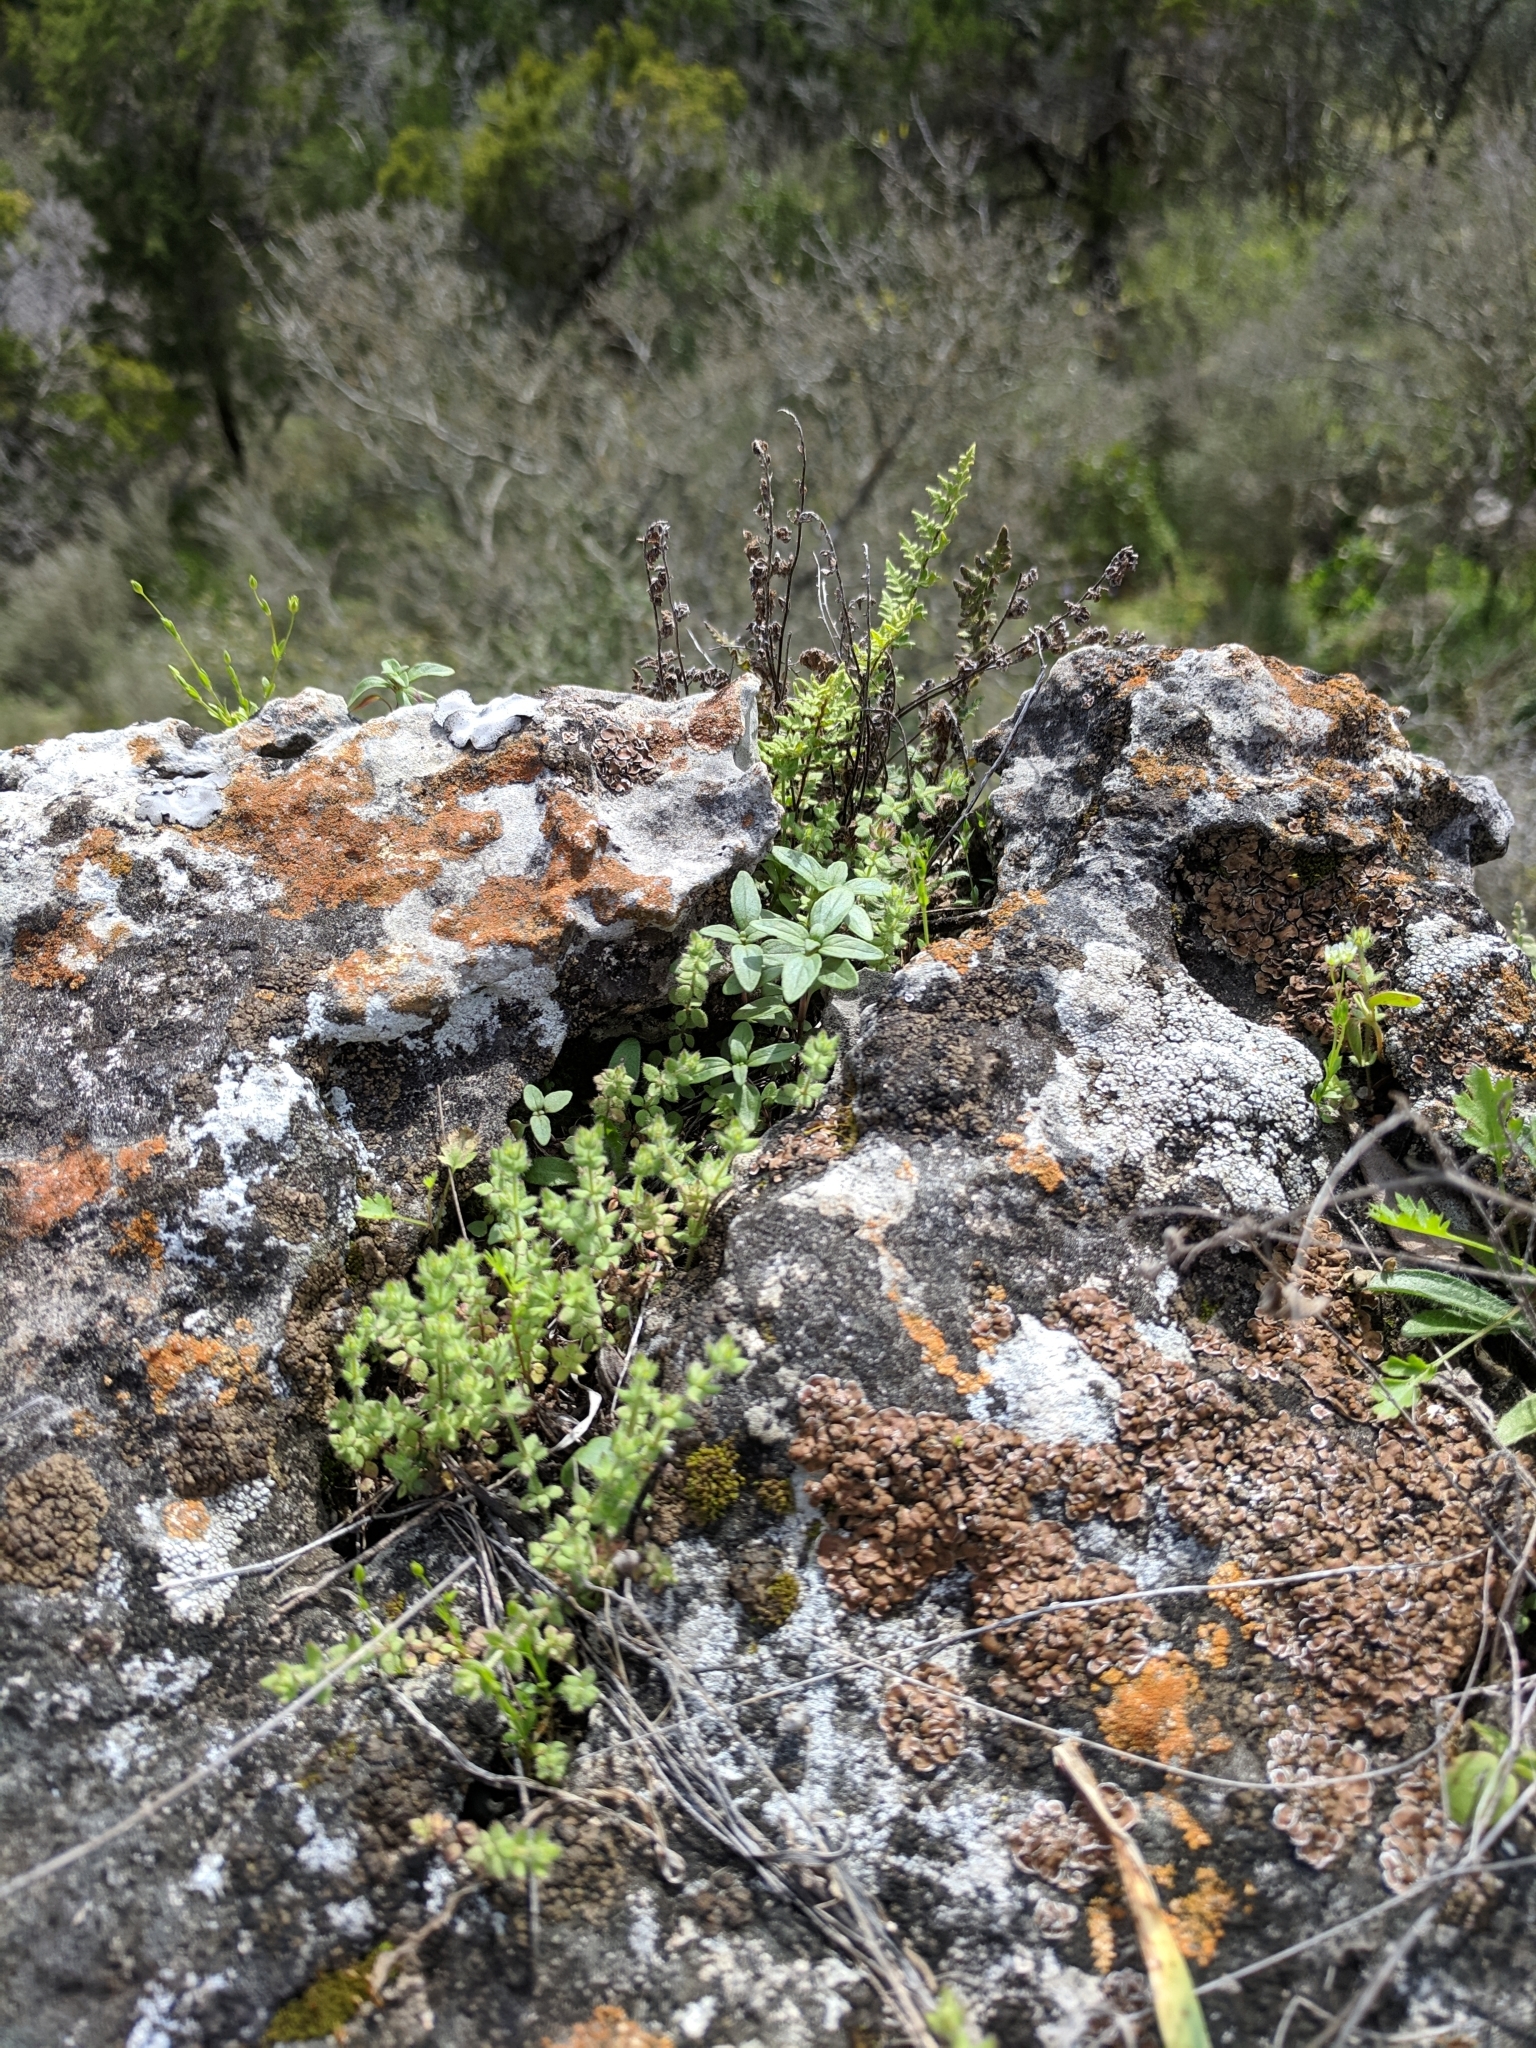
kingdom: Plantae
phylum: Tracheophyta
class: Magnoliopsida
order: Gentianales
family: Rubiaceae
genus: Galium
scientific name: Galium texense
